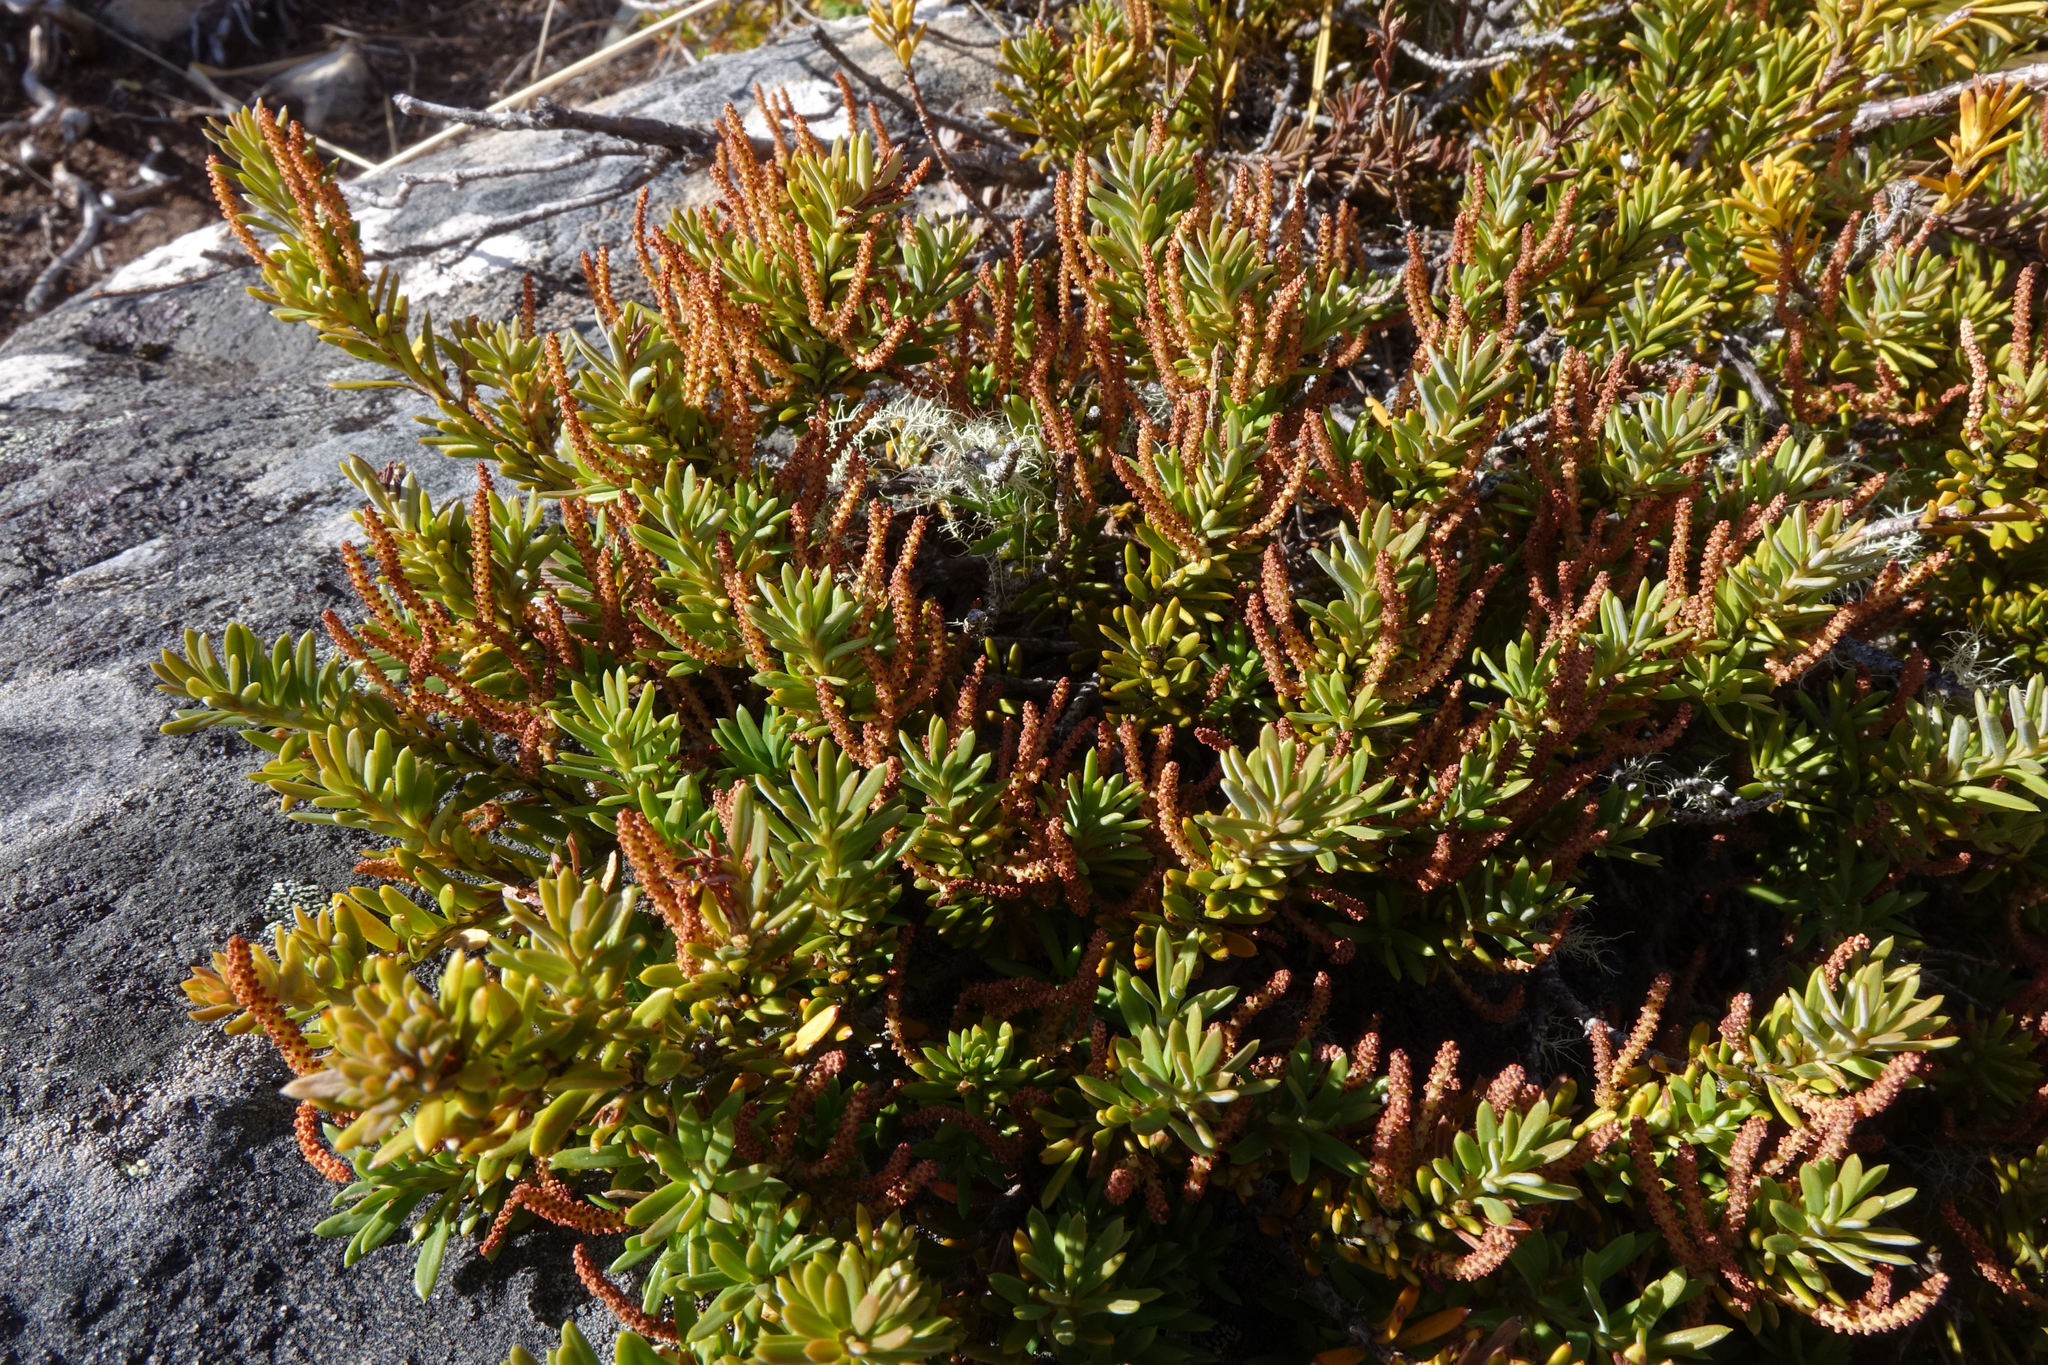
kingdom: Plantae
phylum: Tracheophyta
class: Pinopsida
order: Pinales
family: Podocarpaceae
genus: Podocarpus
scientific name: Podocarpus nivalis
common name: Alpine totara
